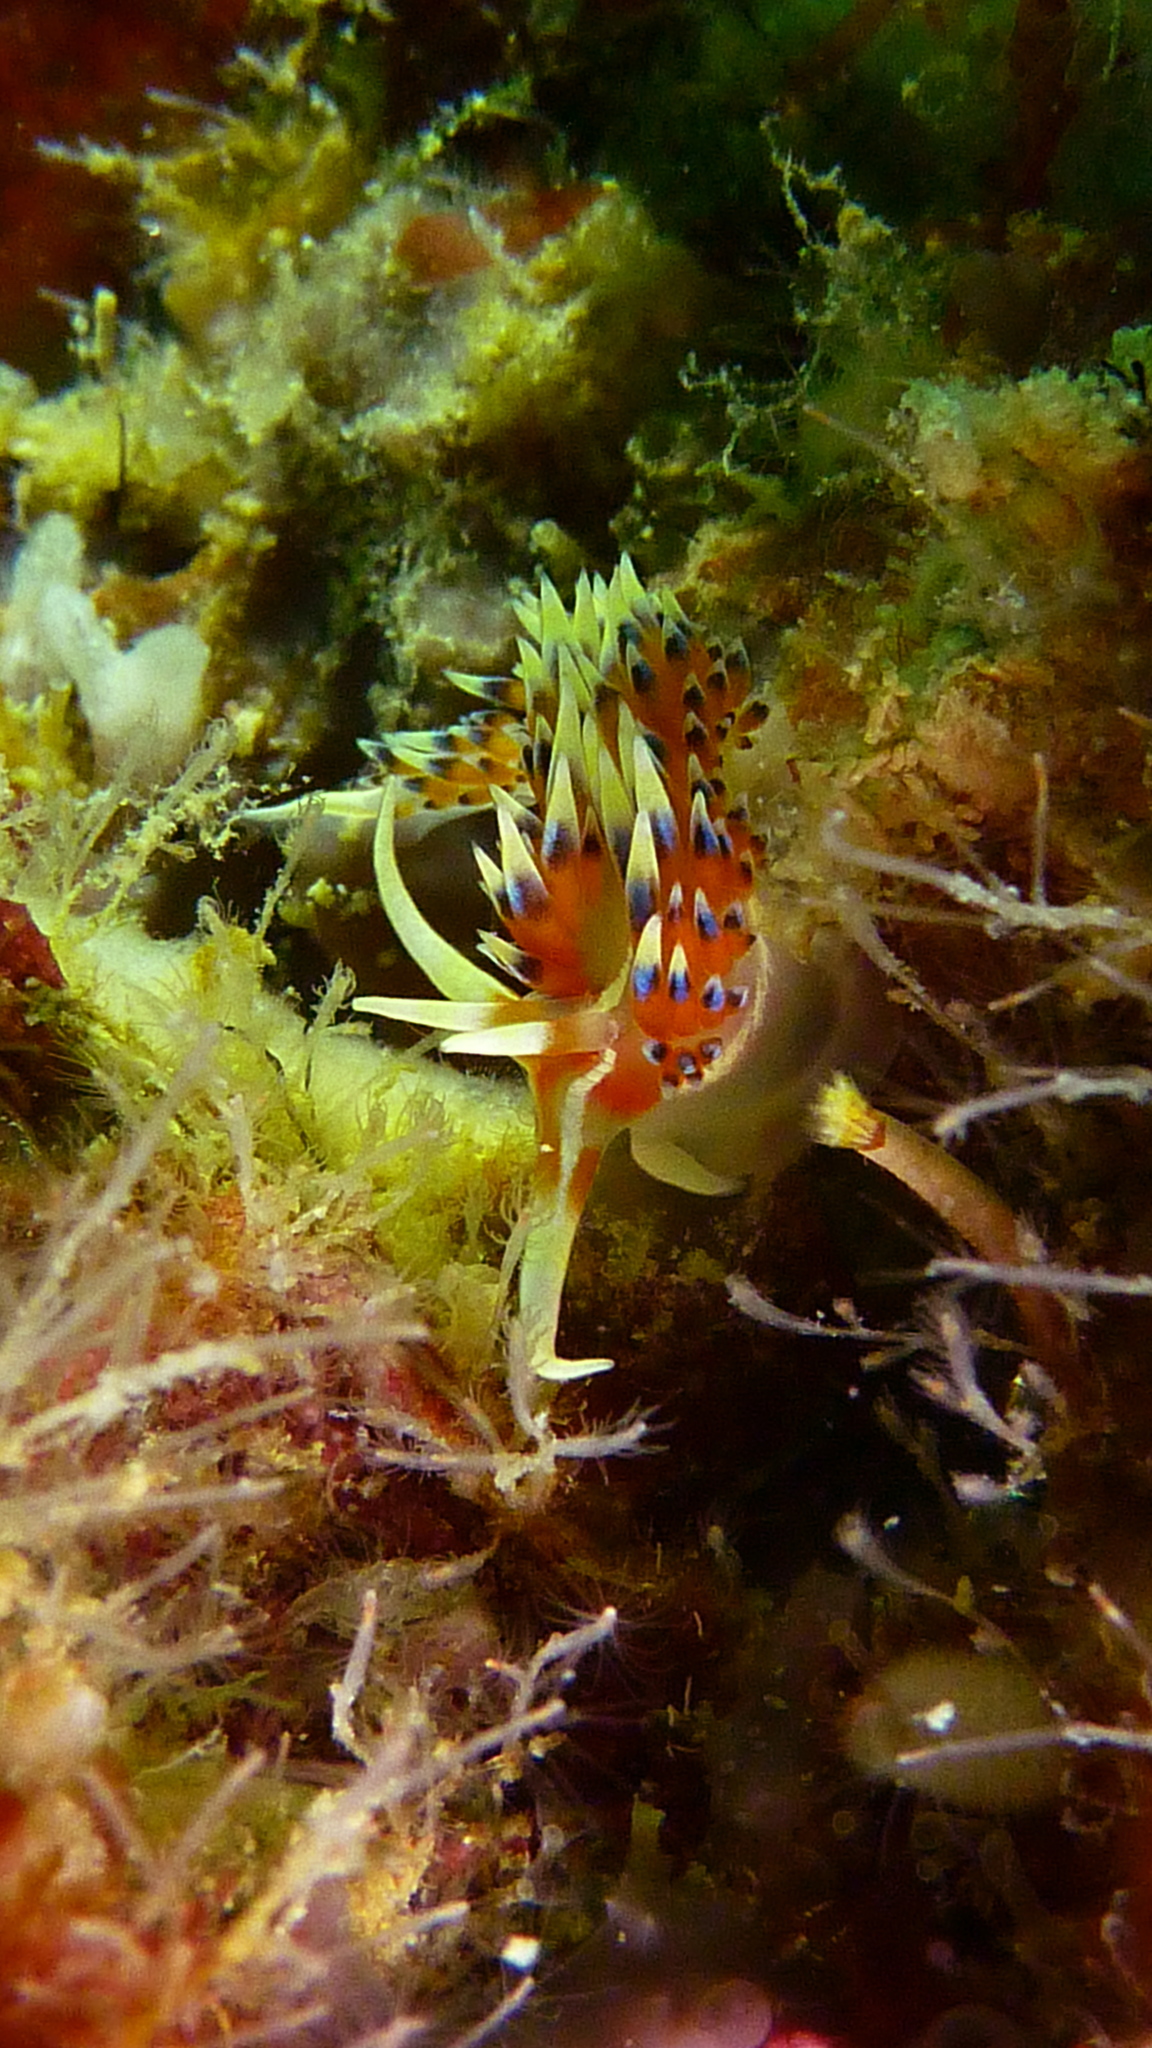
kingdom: Animalia
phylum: Mollusca
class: Gastropoda
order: Nudibranchia
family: Facelinidae
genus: Caloria
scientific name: Caloria indica
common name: Sea slug
